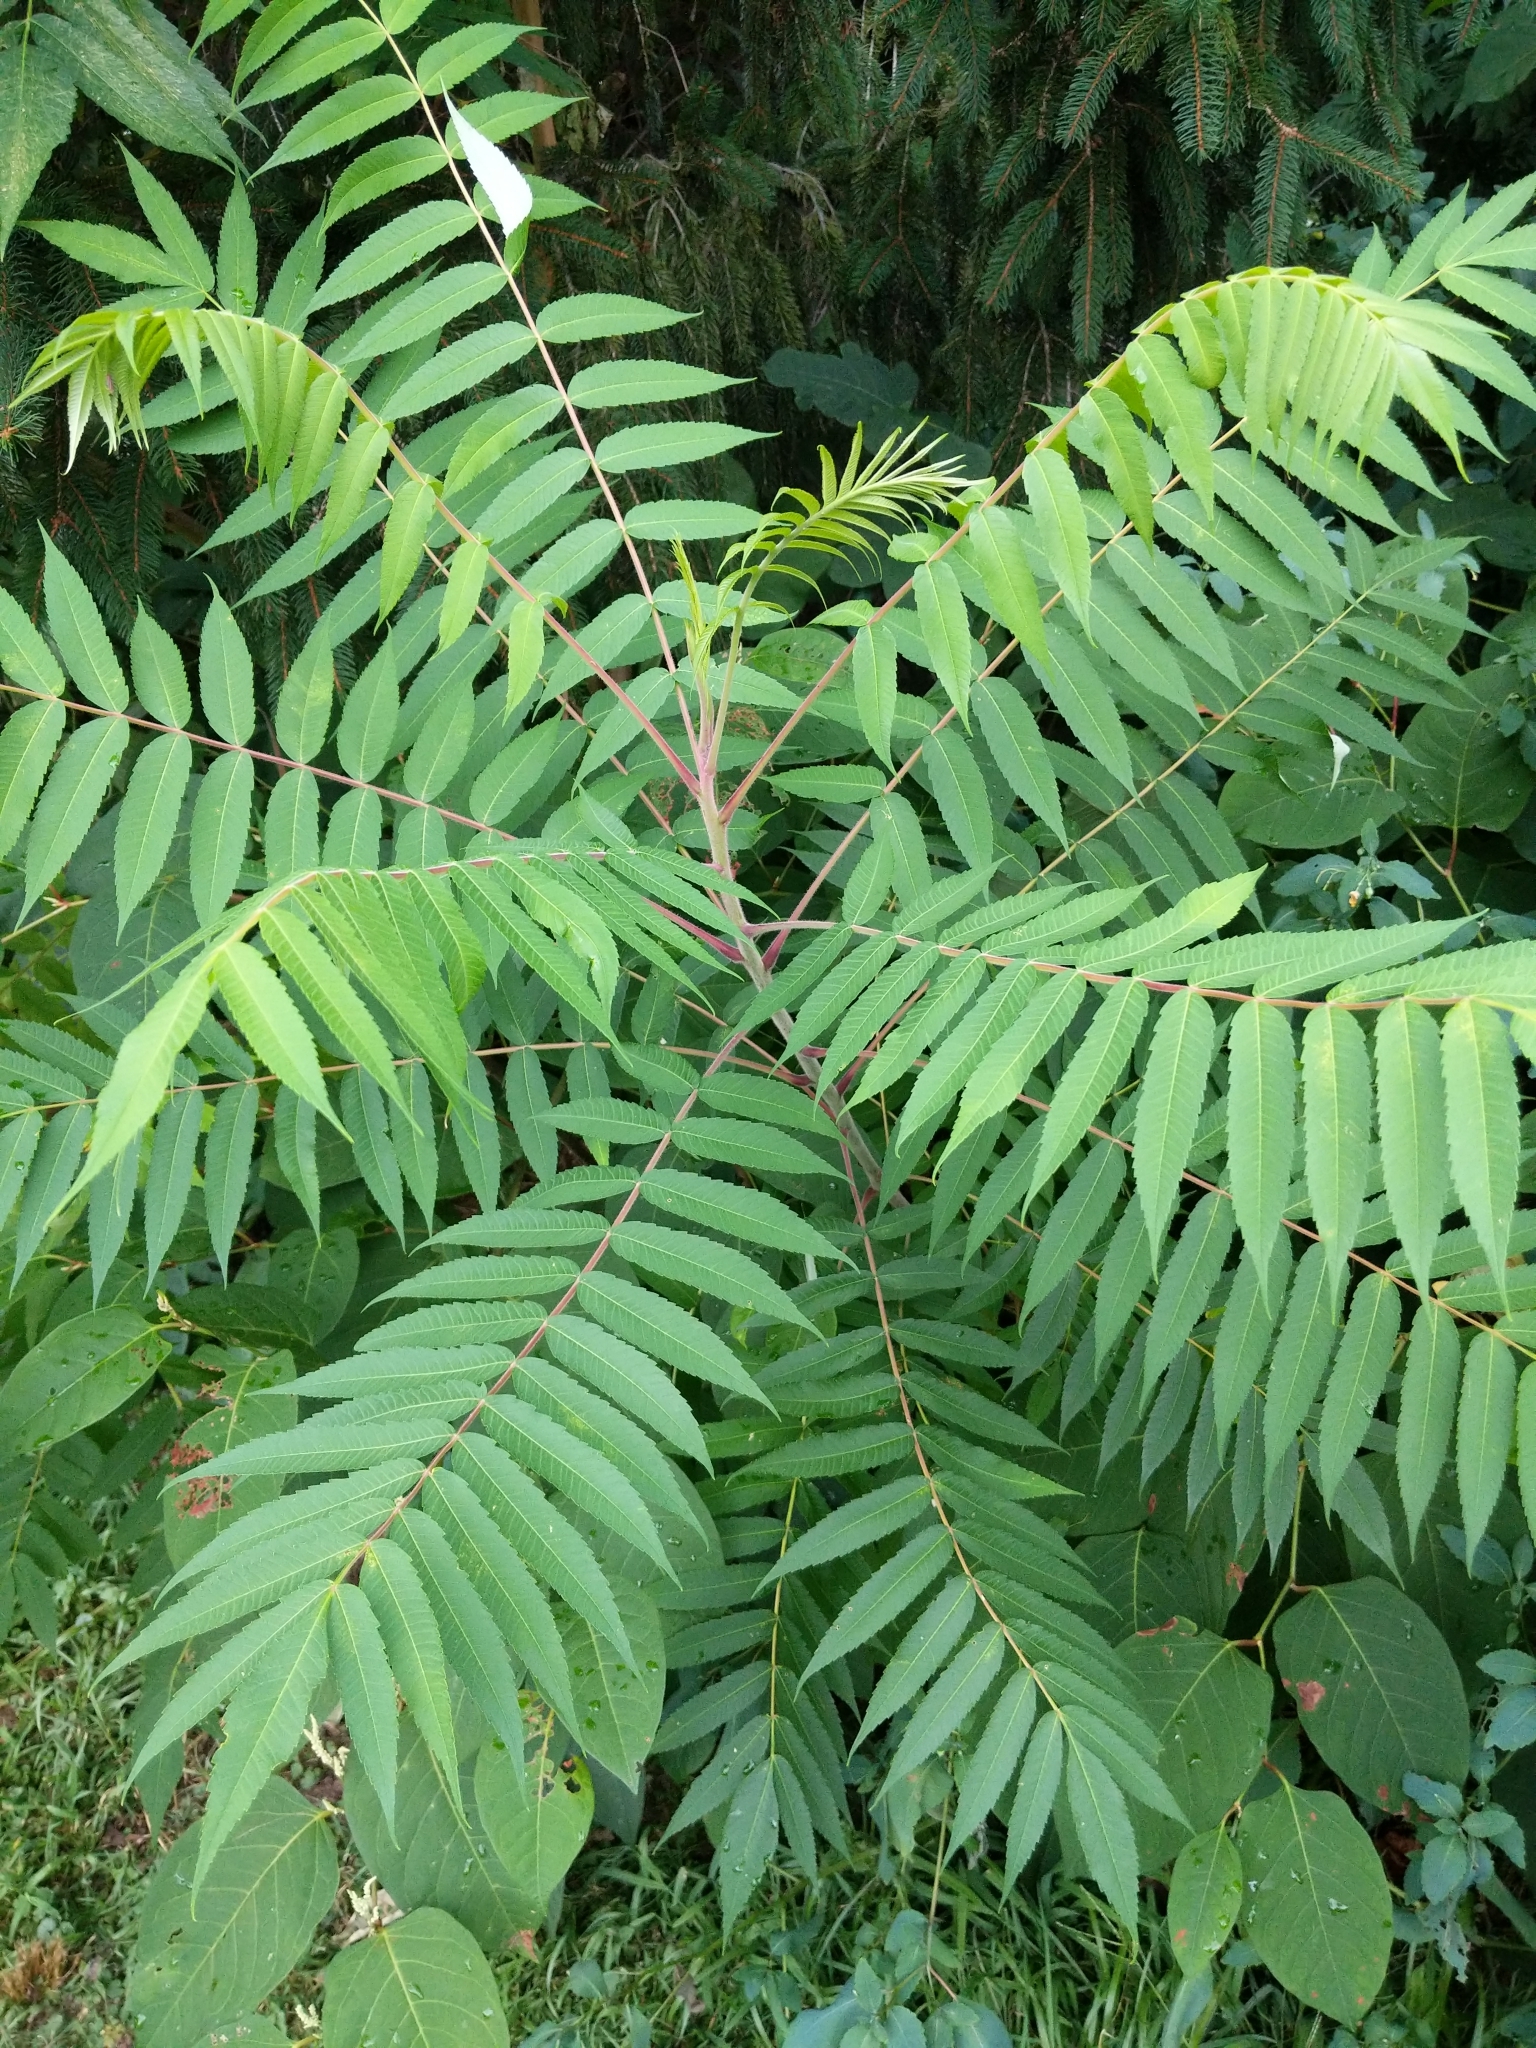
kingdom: Plantae
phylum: Tracheophyta
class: Magnoliopsida
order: Sapindales
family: Anacardiaceae
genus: Rhus
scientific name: Rhus typhina
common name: Staghorn sumac
